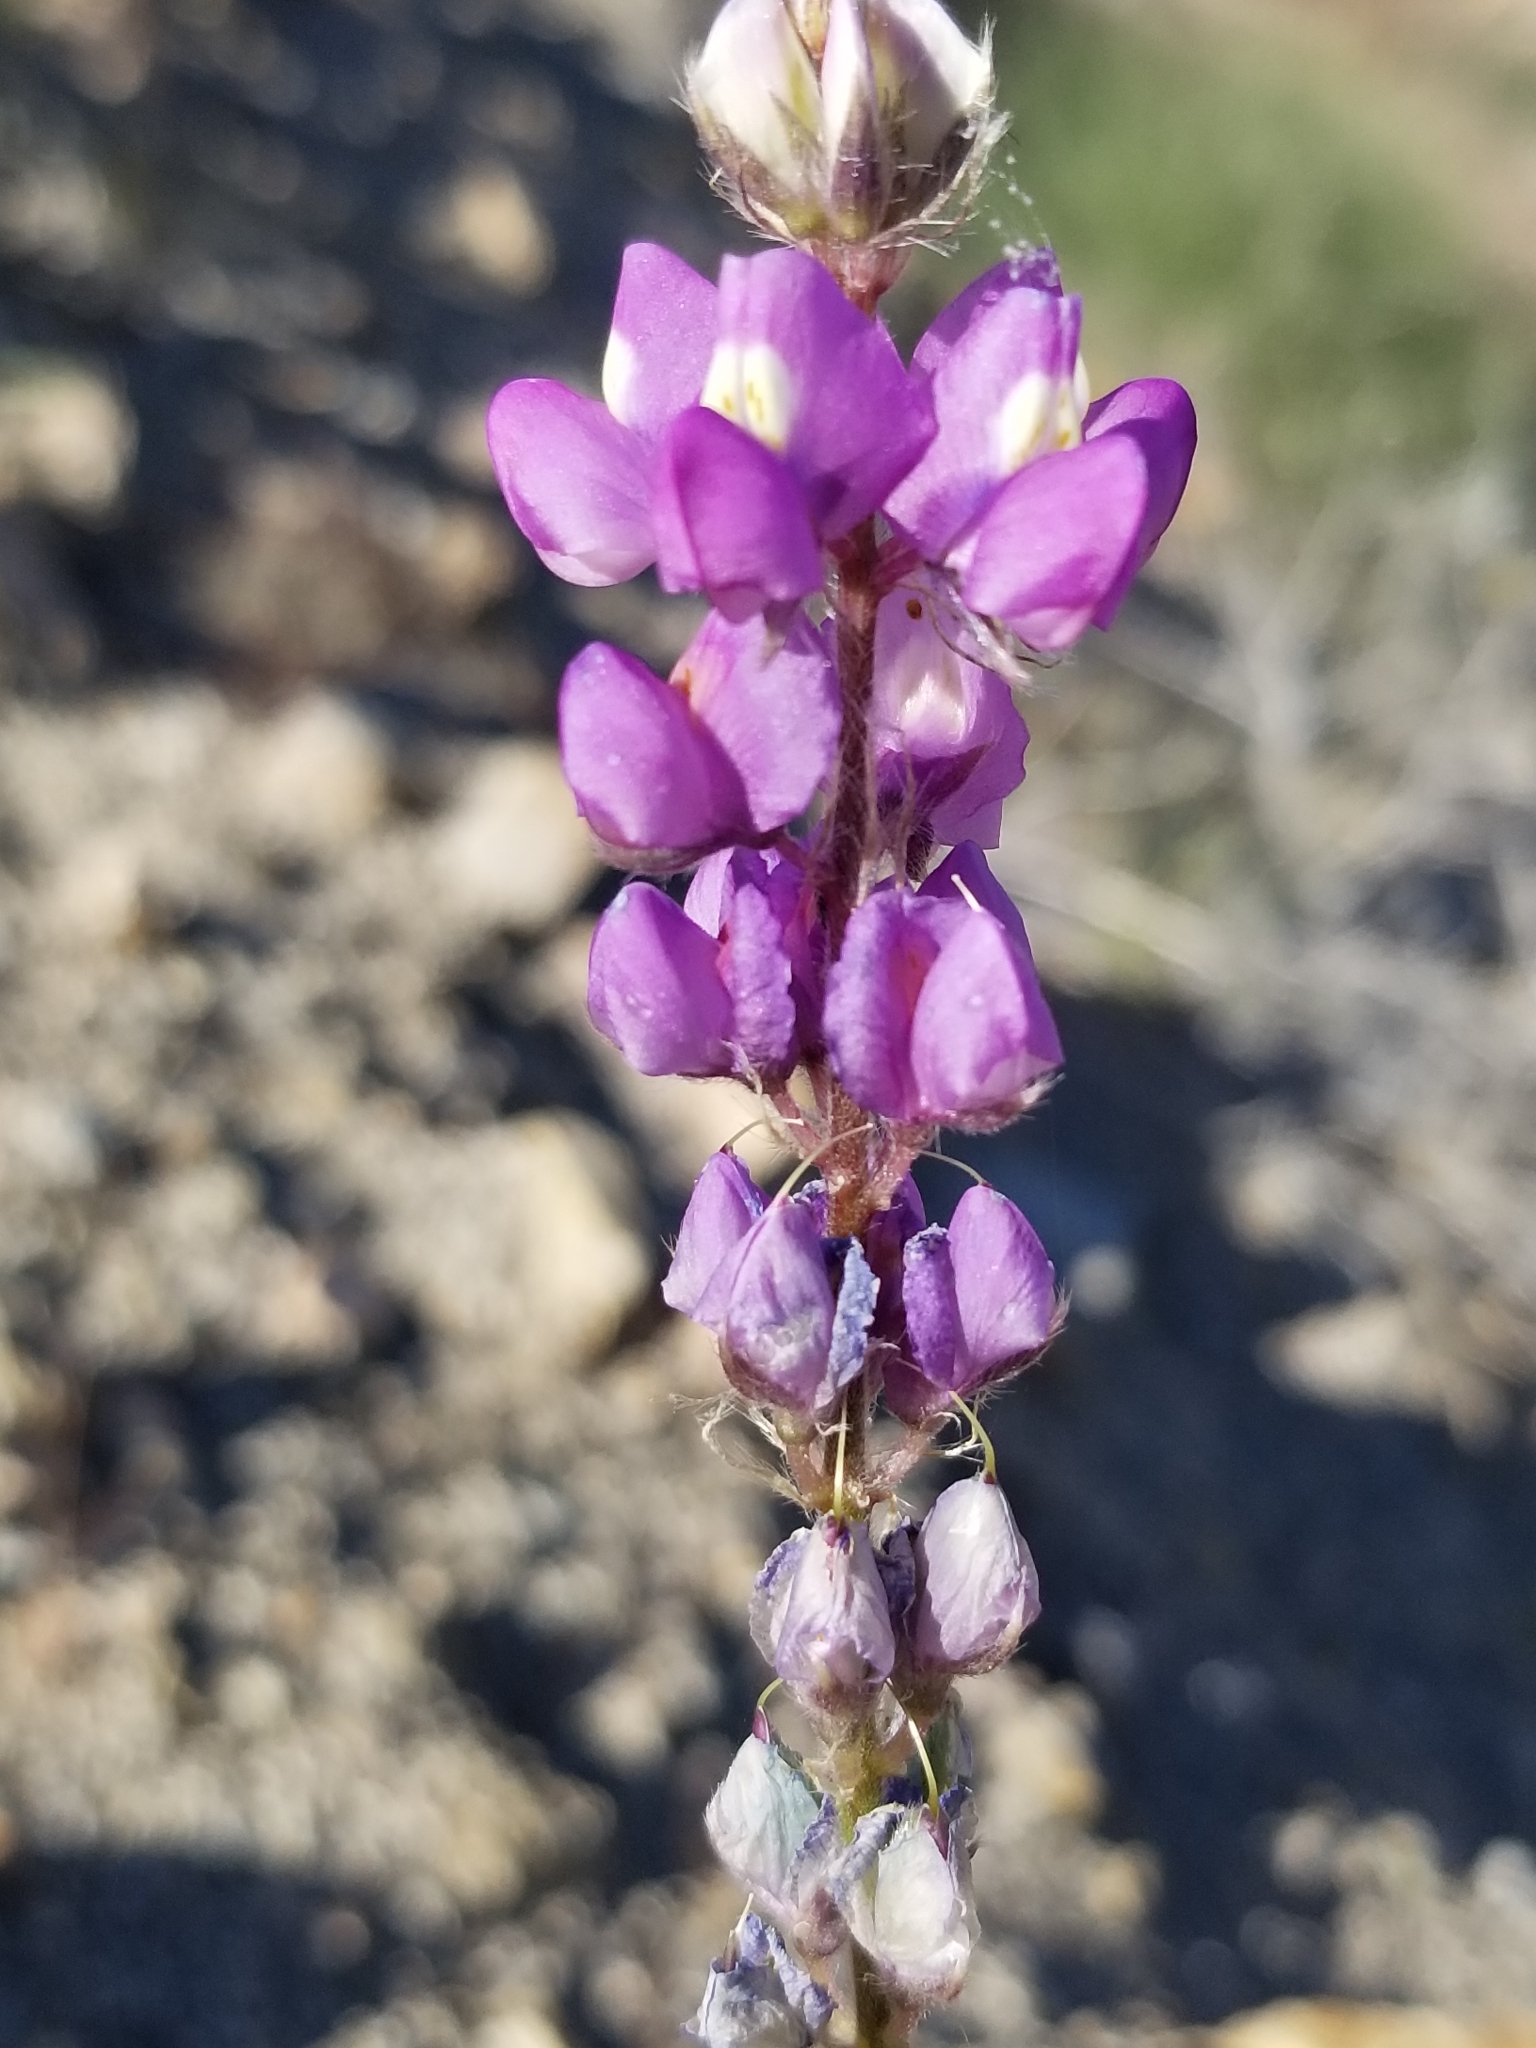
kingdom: Plantae
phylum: Tracheophyta
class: Magnoliopsida
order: Fabales
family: Fabaceae
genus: Lupinus
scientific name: Lupinus arizonicus
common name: Arizona lupine
